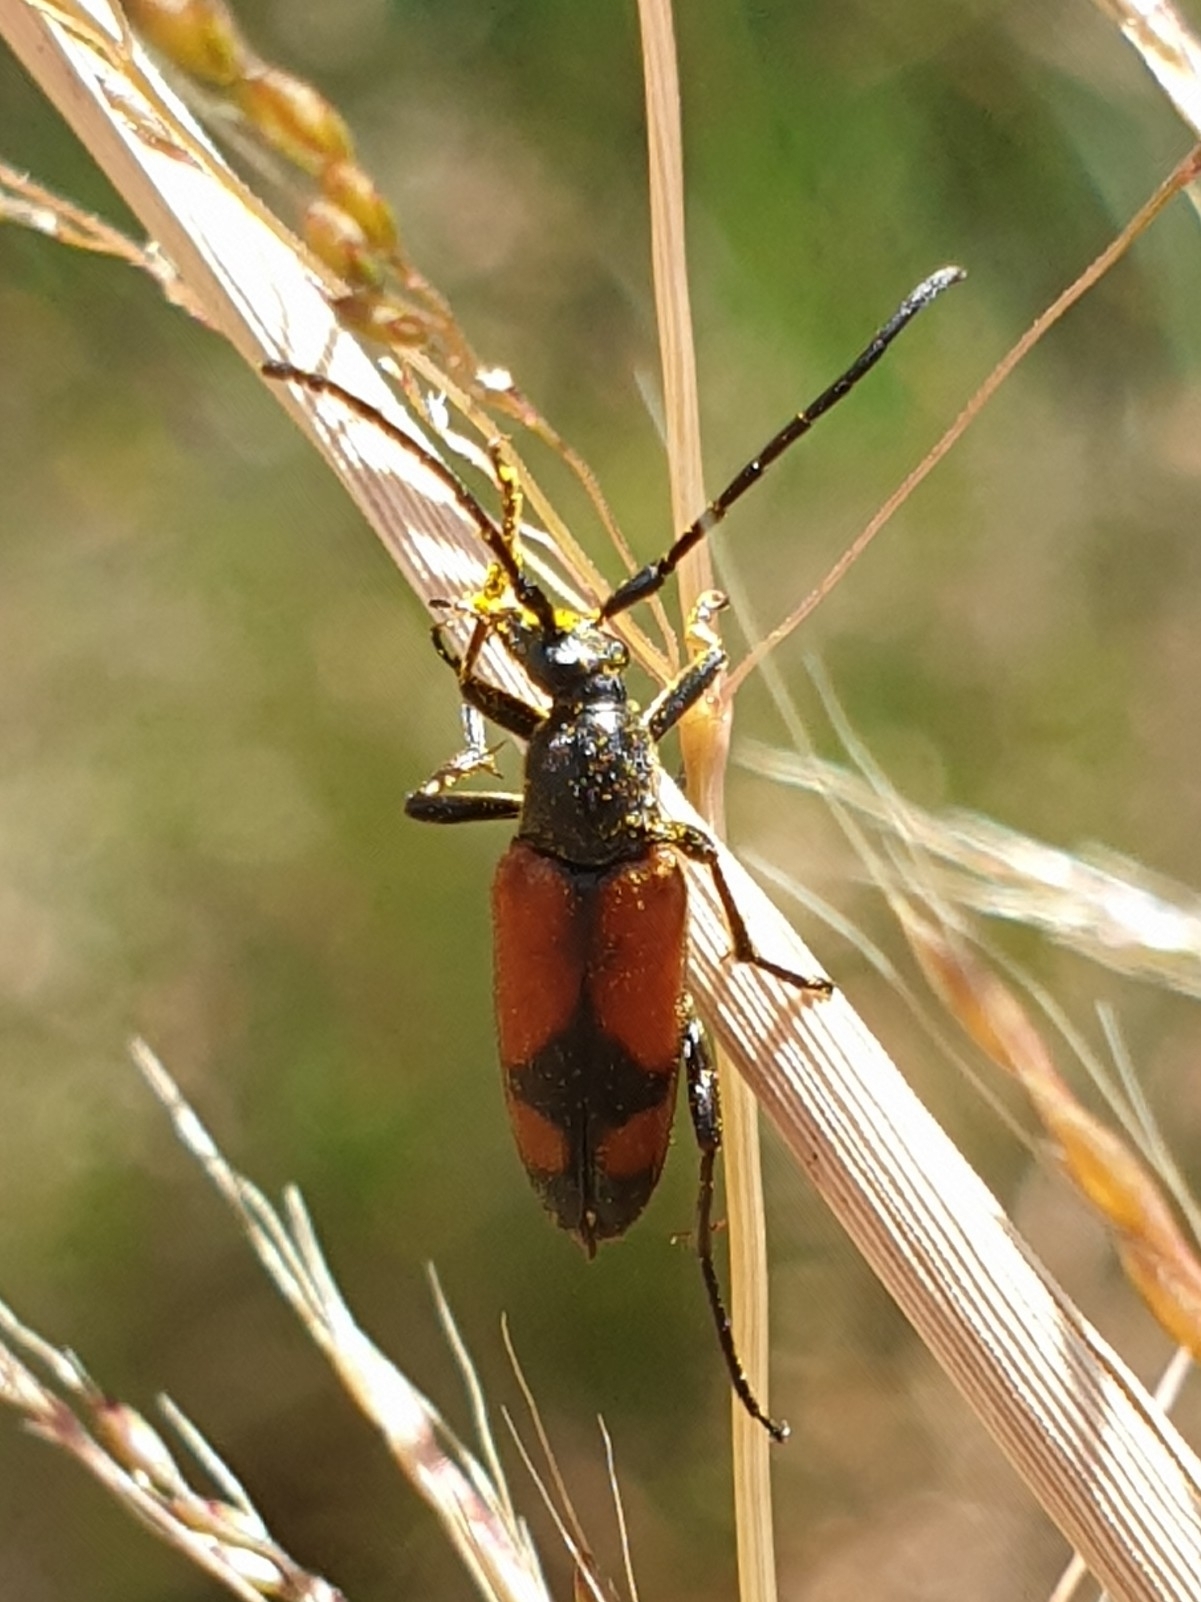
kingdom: Animalia
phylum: Arthropoda
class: Insecta
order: Coleoptera
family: Cerambycidae
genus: Stenurella
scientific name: Stenurella bifasciata
